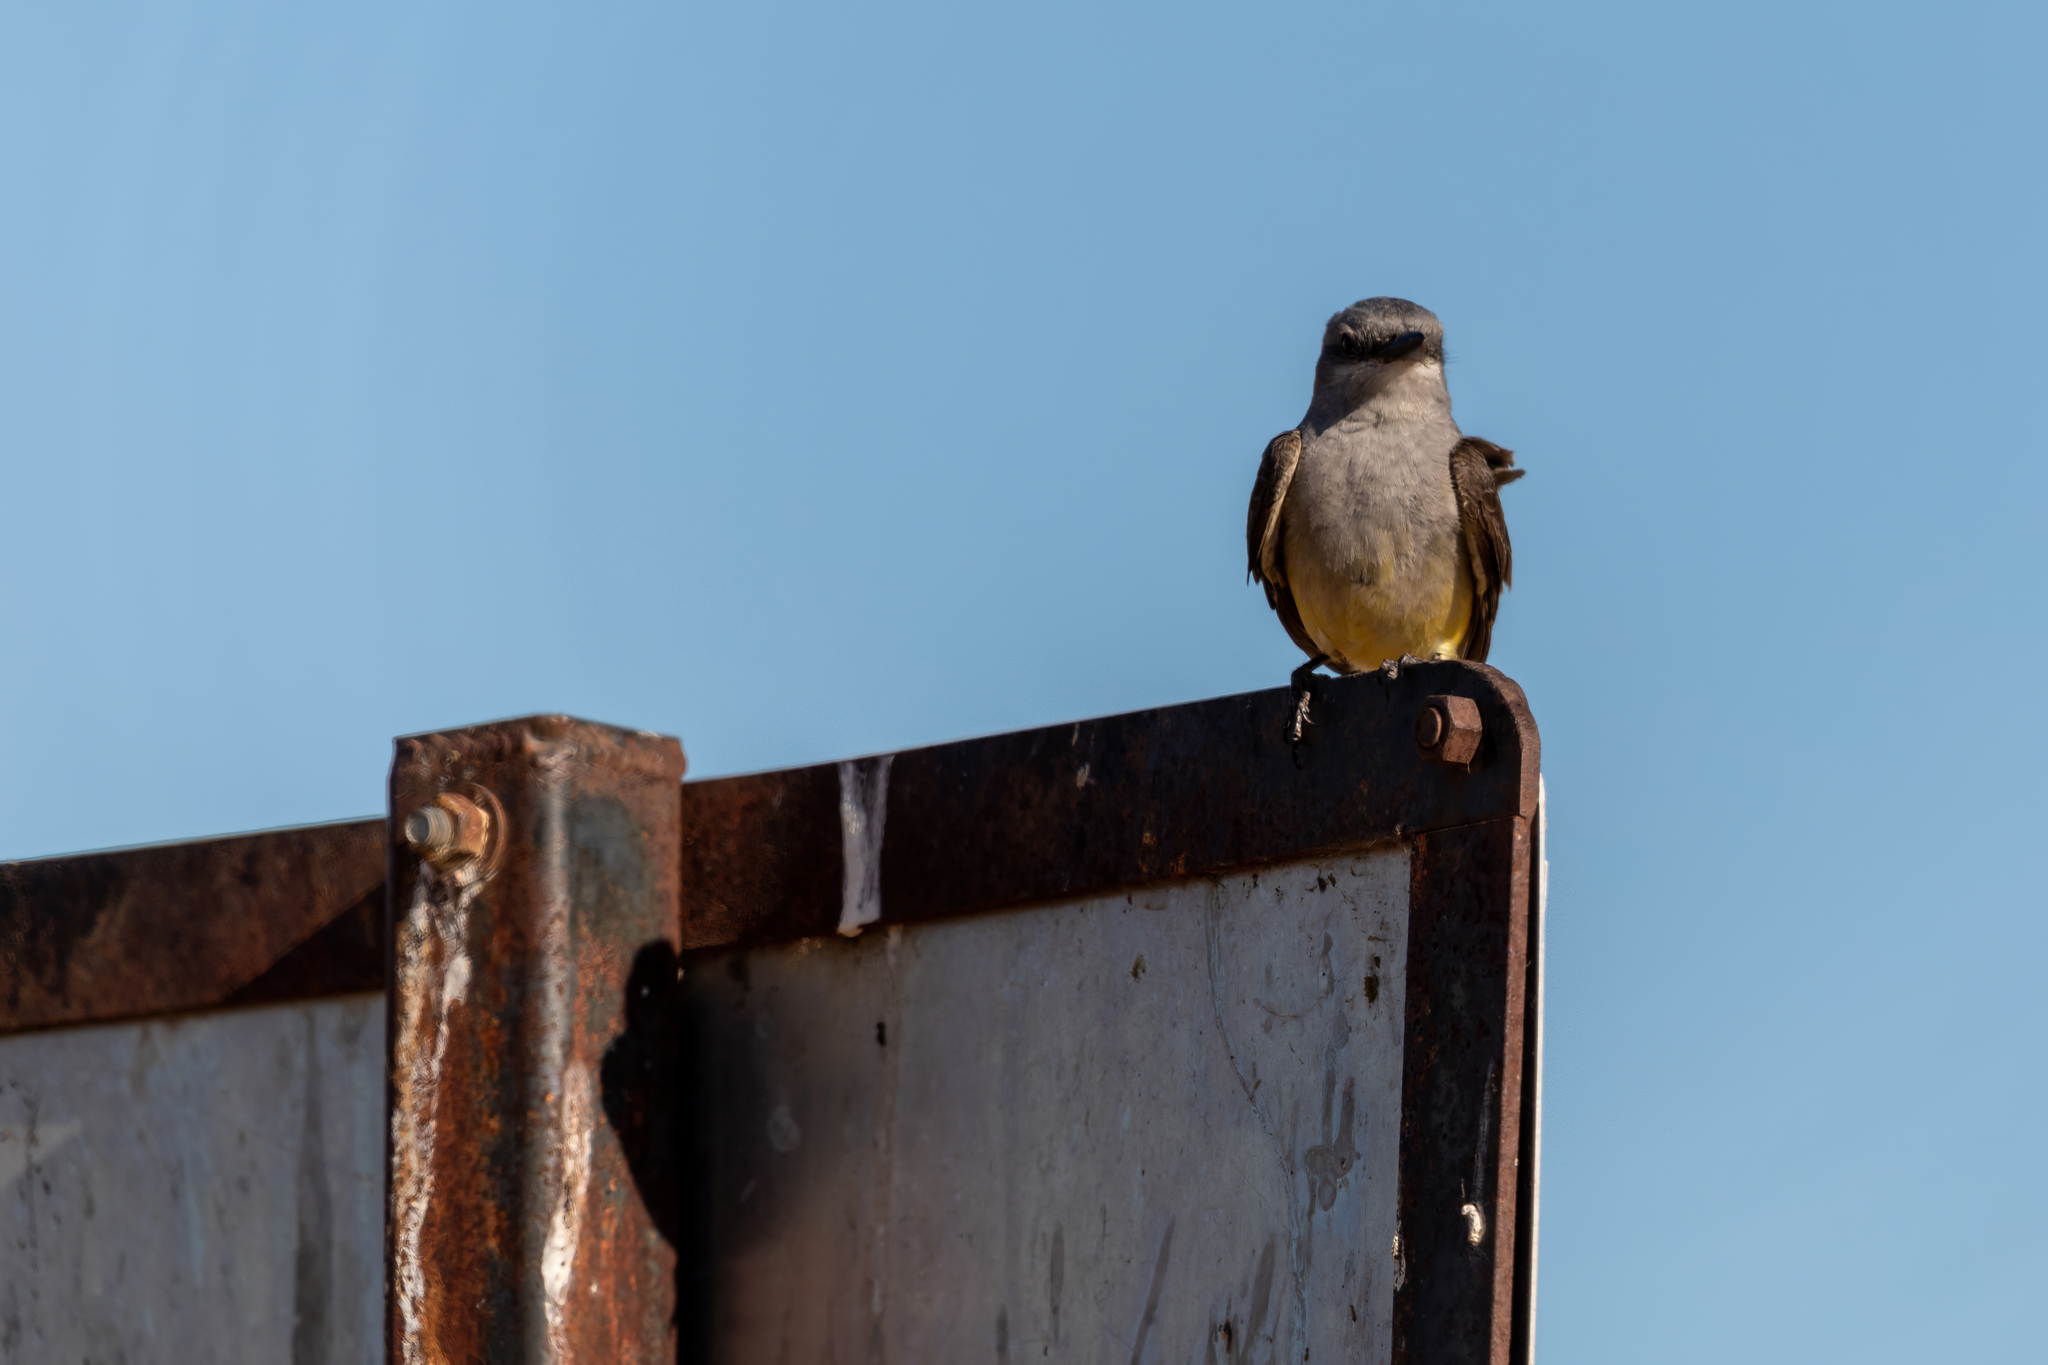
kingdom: Animalia
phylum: Chordata
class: Aves
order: Passeriformes
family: Tyrannidae
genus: Tyrannus
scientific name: Tyrannus verticalis
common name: Western kingbird
